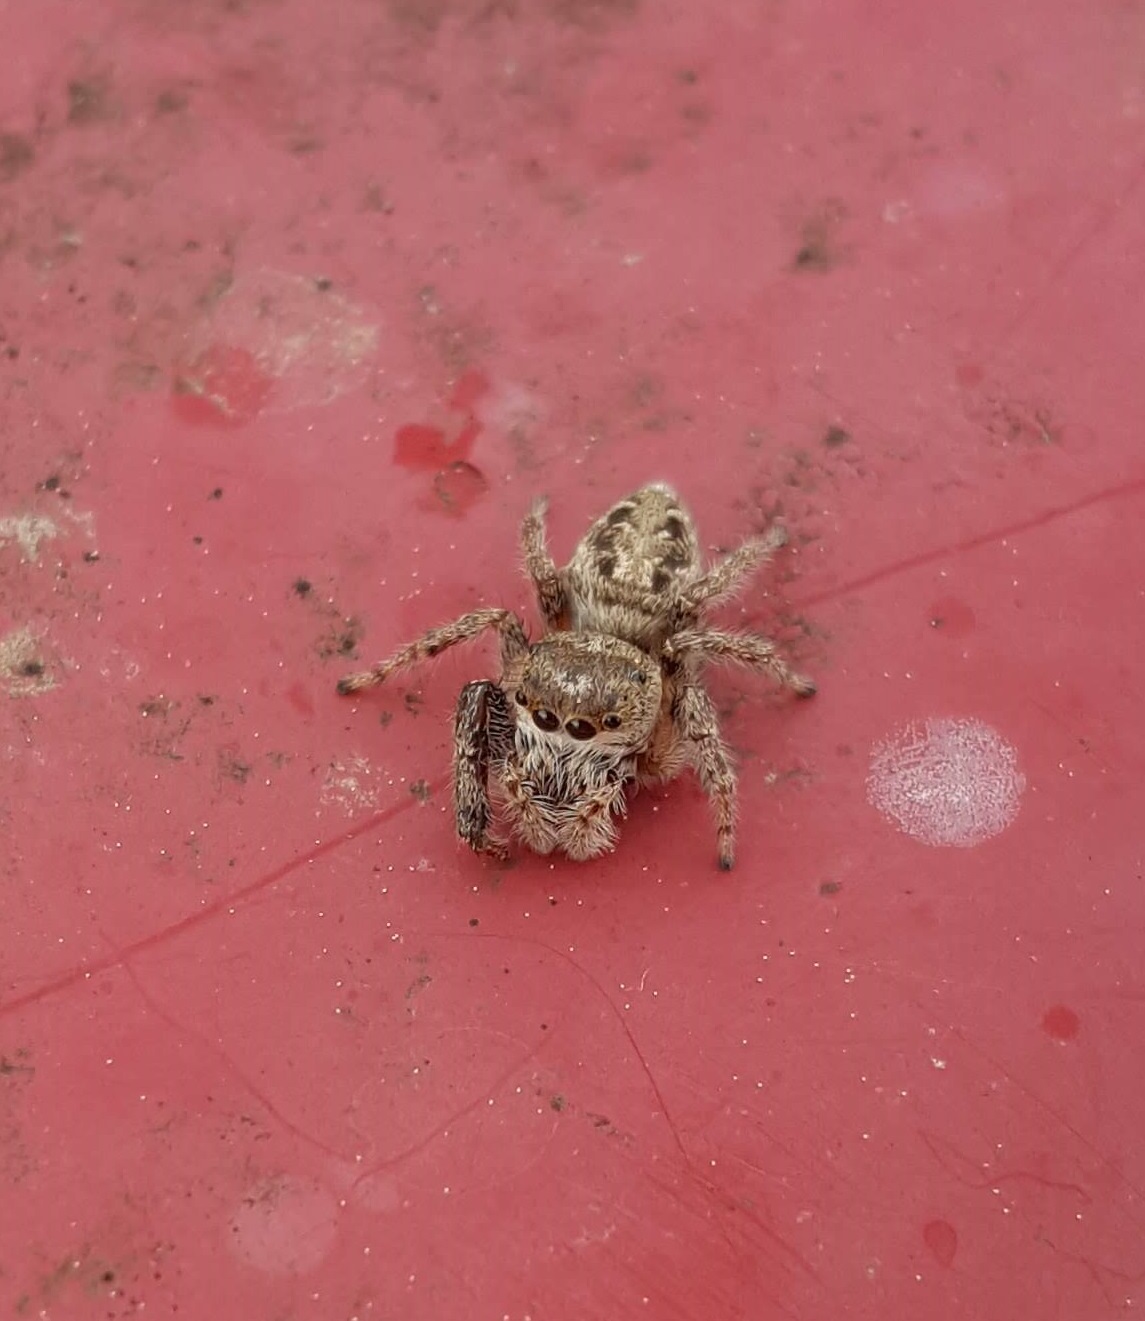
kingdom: Animalia
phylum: Arthropoda
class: Arachnida
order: Araneae
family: Salticidae
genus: Eris
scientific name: Eris militaris
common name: Bronze jumper
